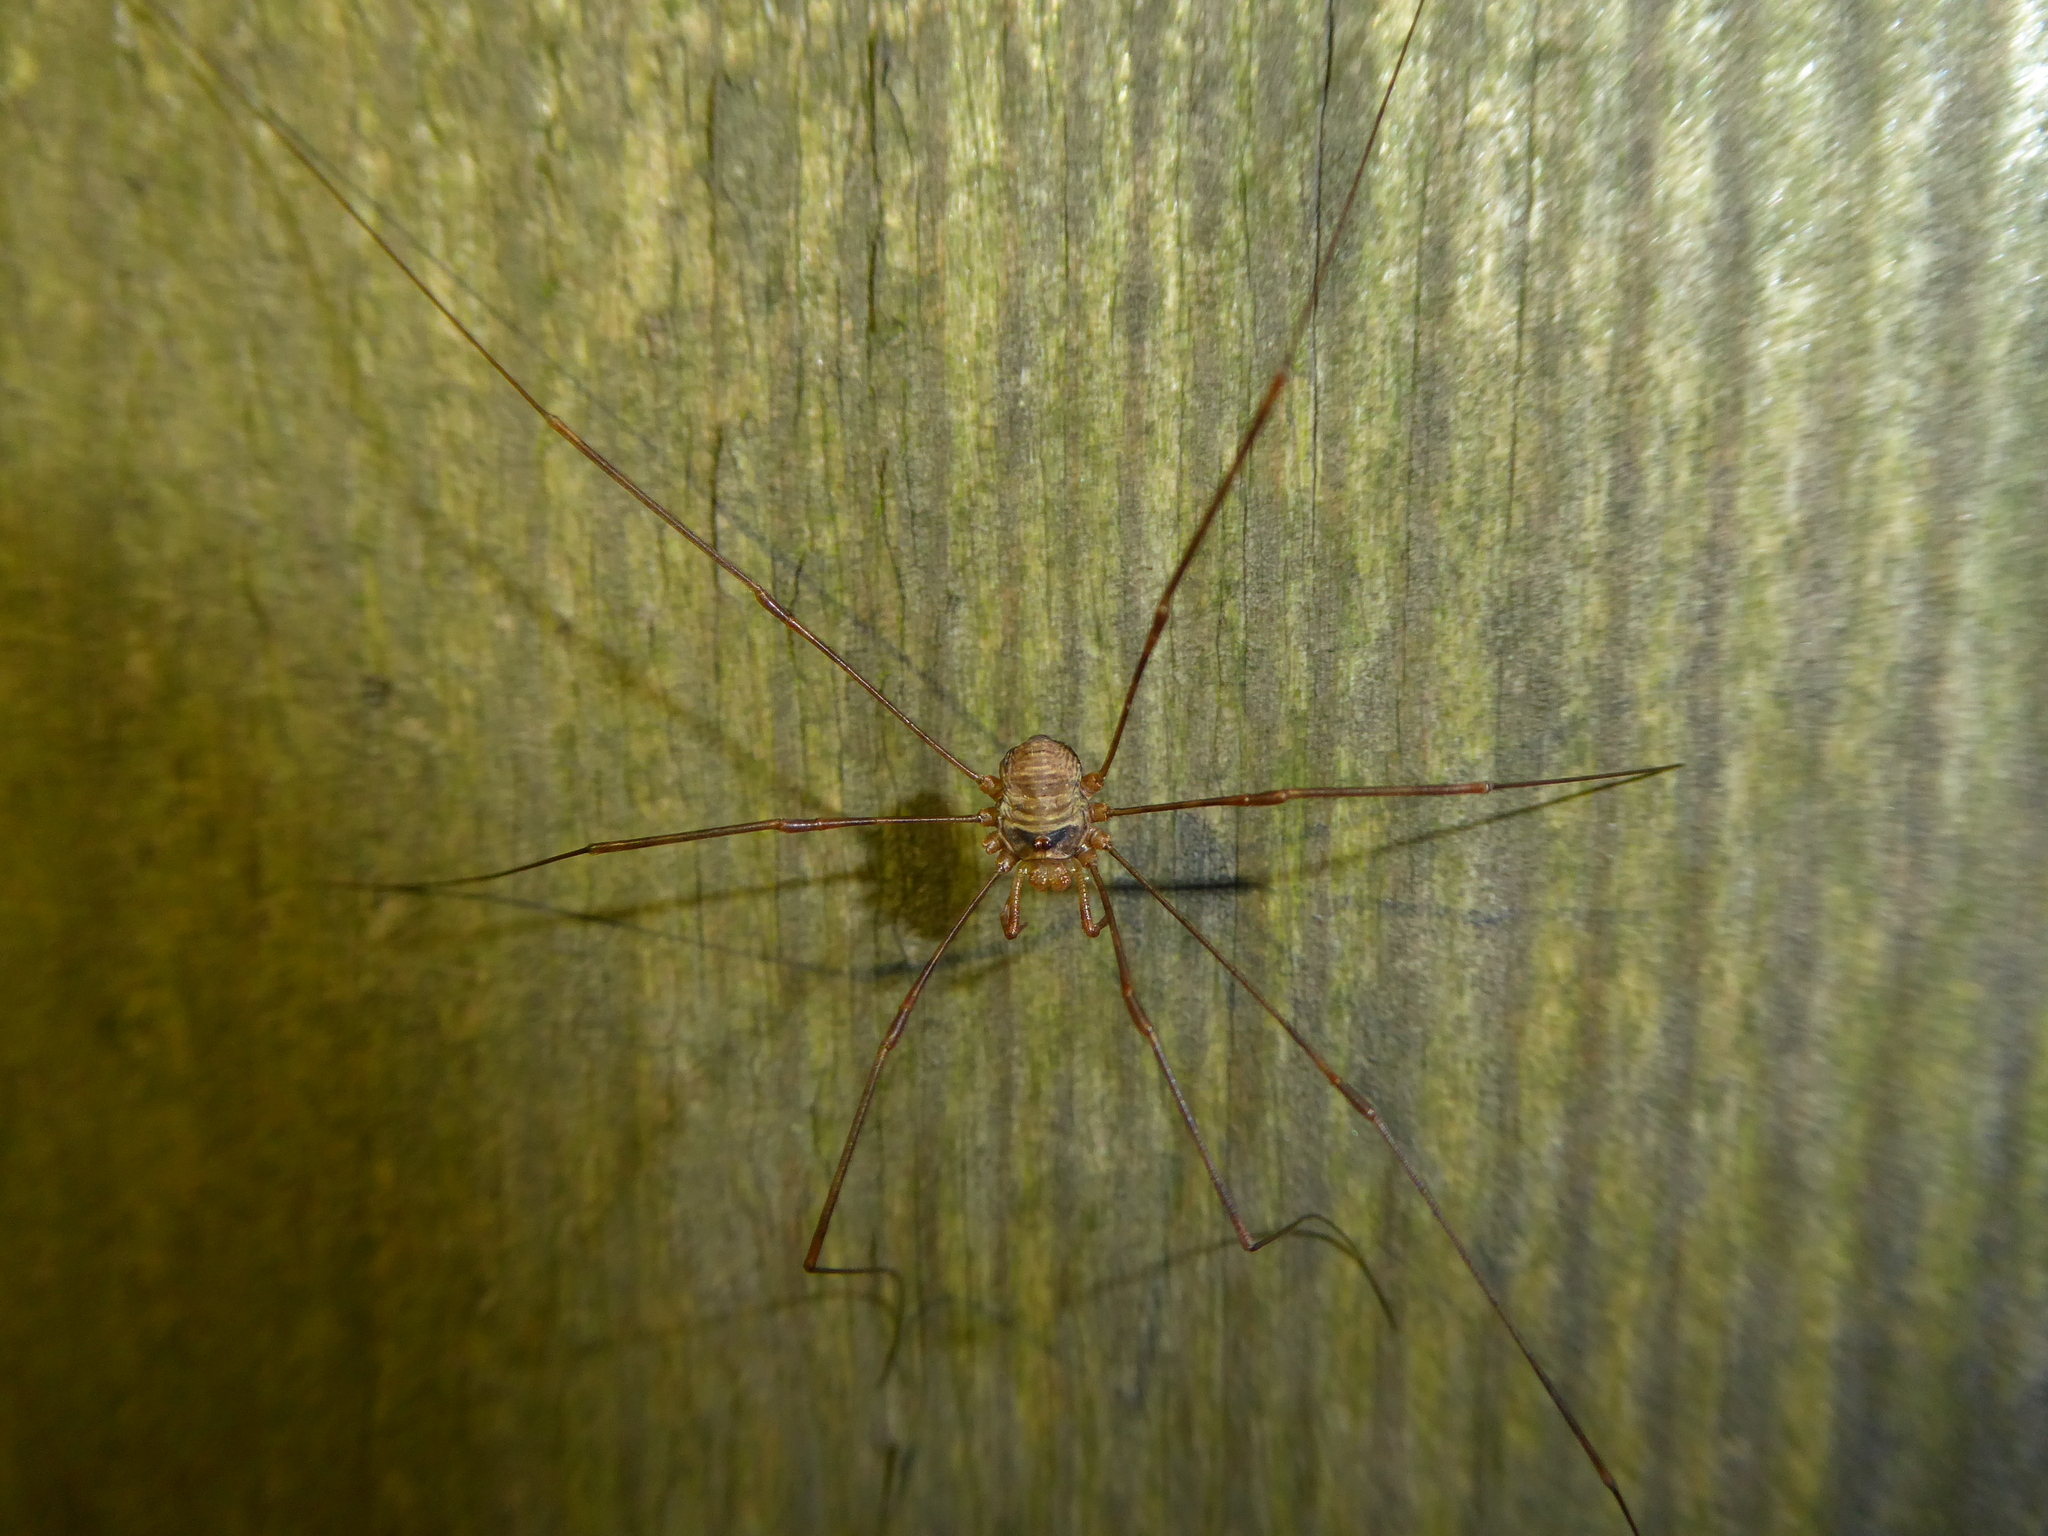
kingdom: Animalia
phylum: Arthropoda
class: Arachnida
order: Opiliones
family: Phalangiidae
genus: Dicranopalpus
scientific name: Dicranopalpus
